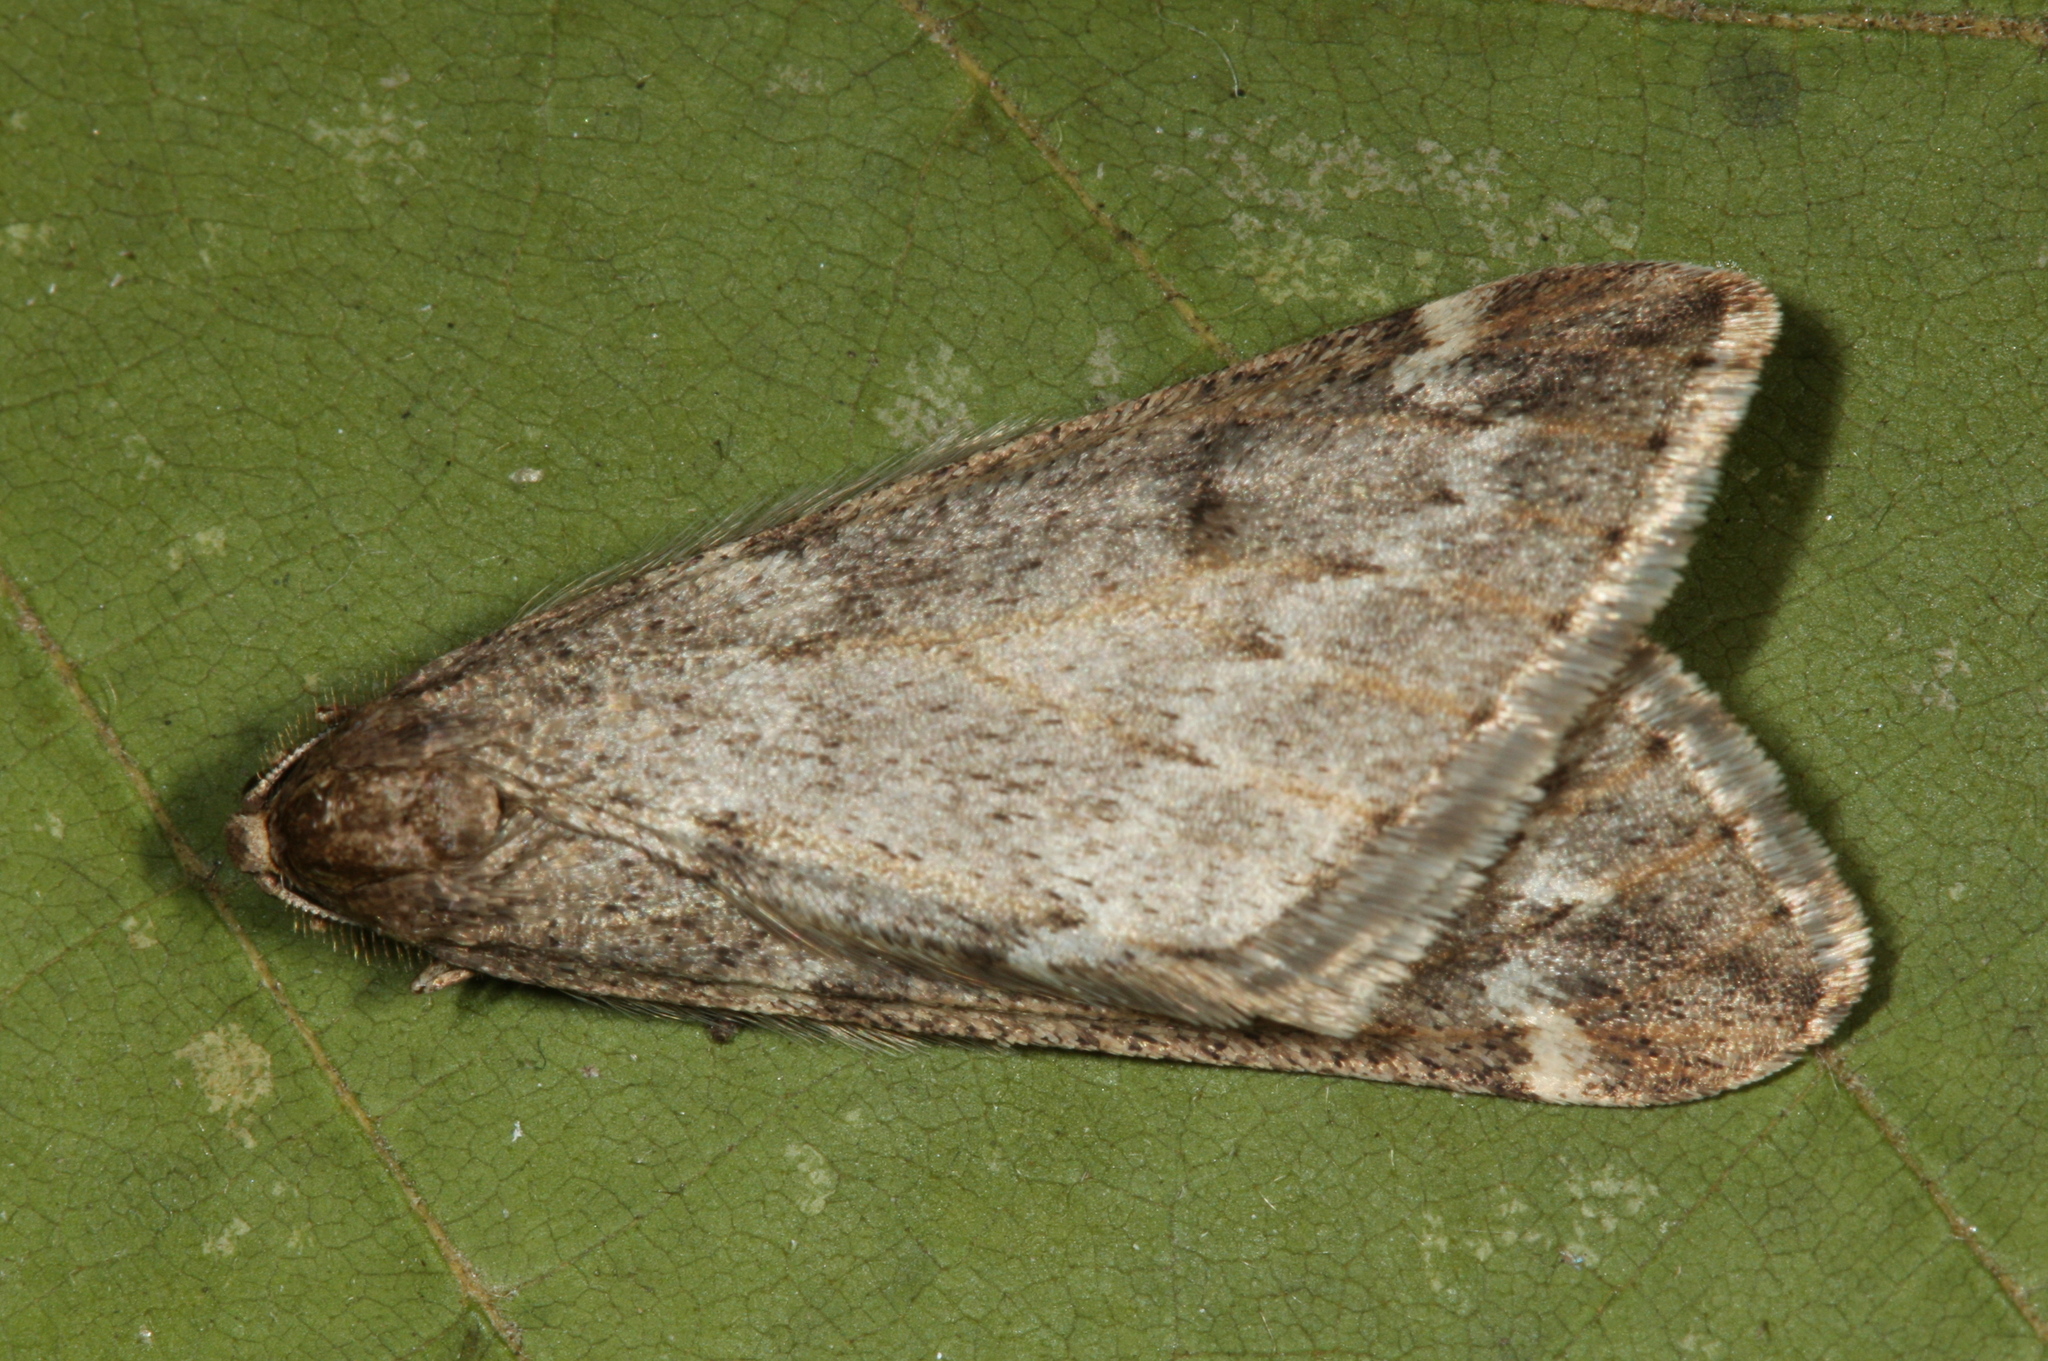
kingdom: Animalia
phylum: Arthropoda
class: Insecta
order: Lepidoptera
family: Geometridae
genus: Alsophila
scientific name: Alsophila aescularia
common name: March moth
